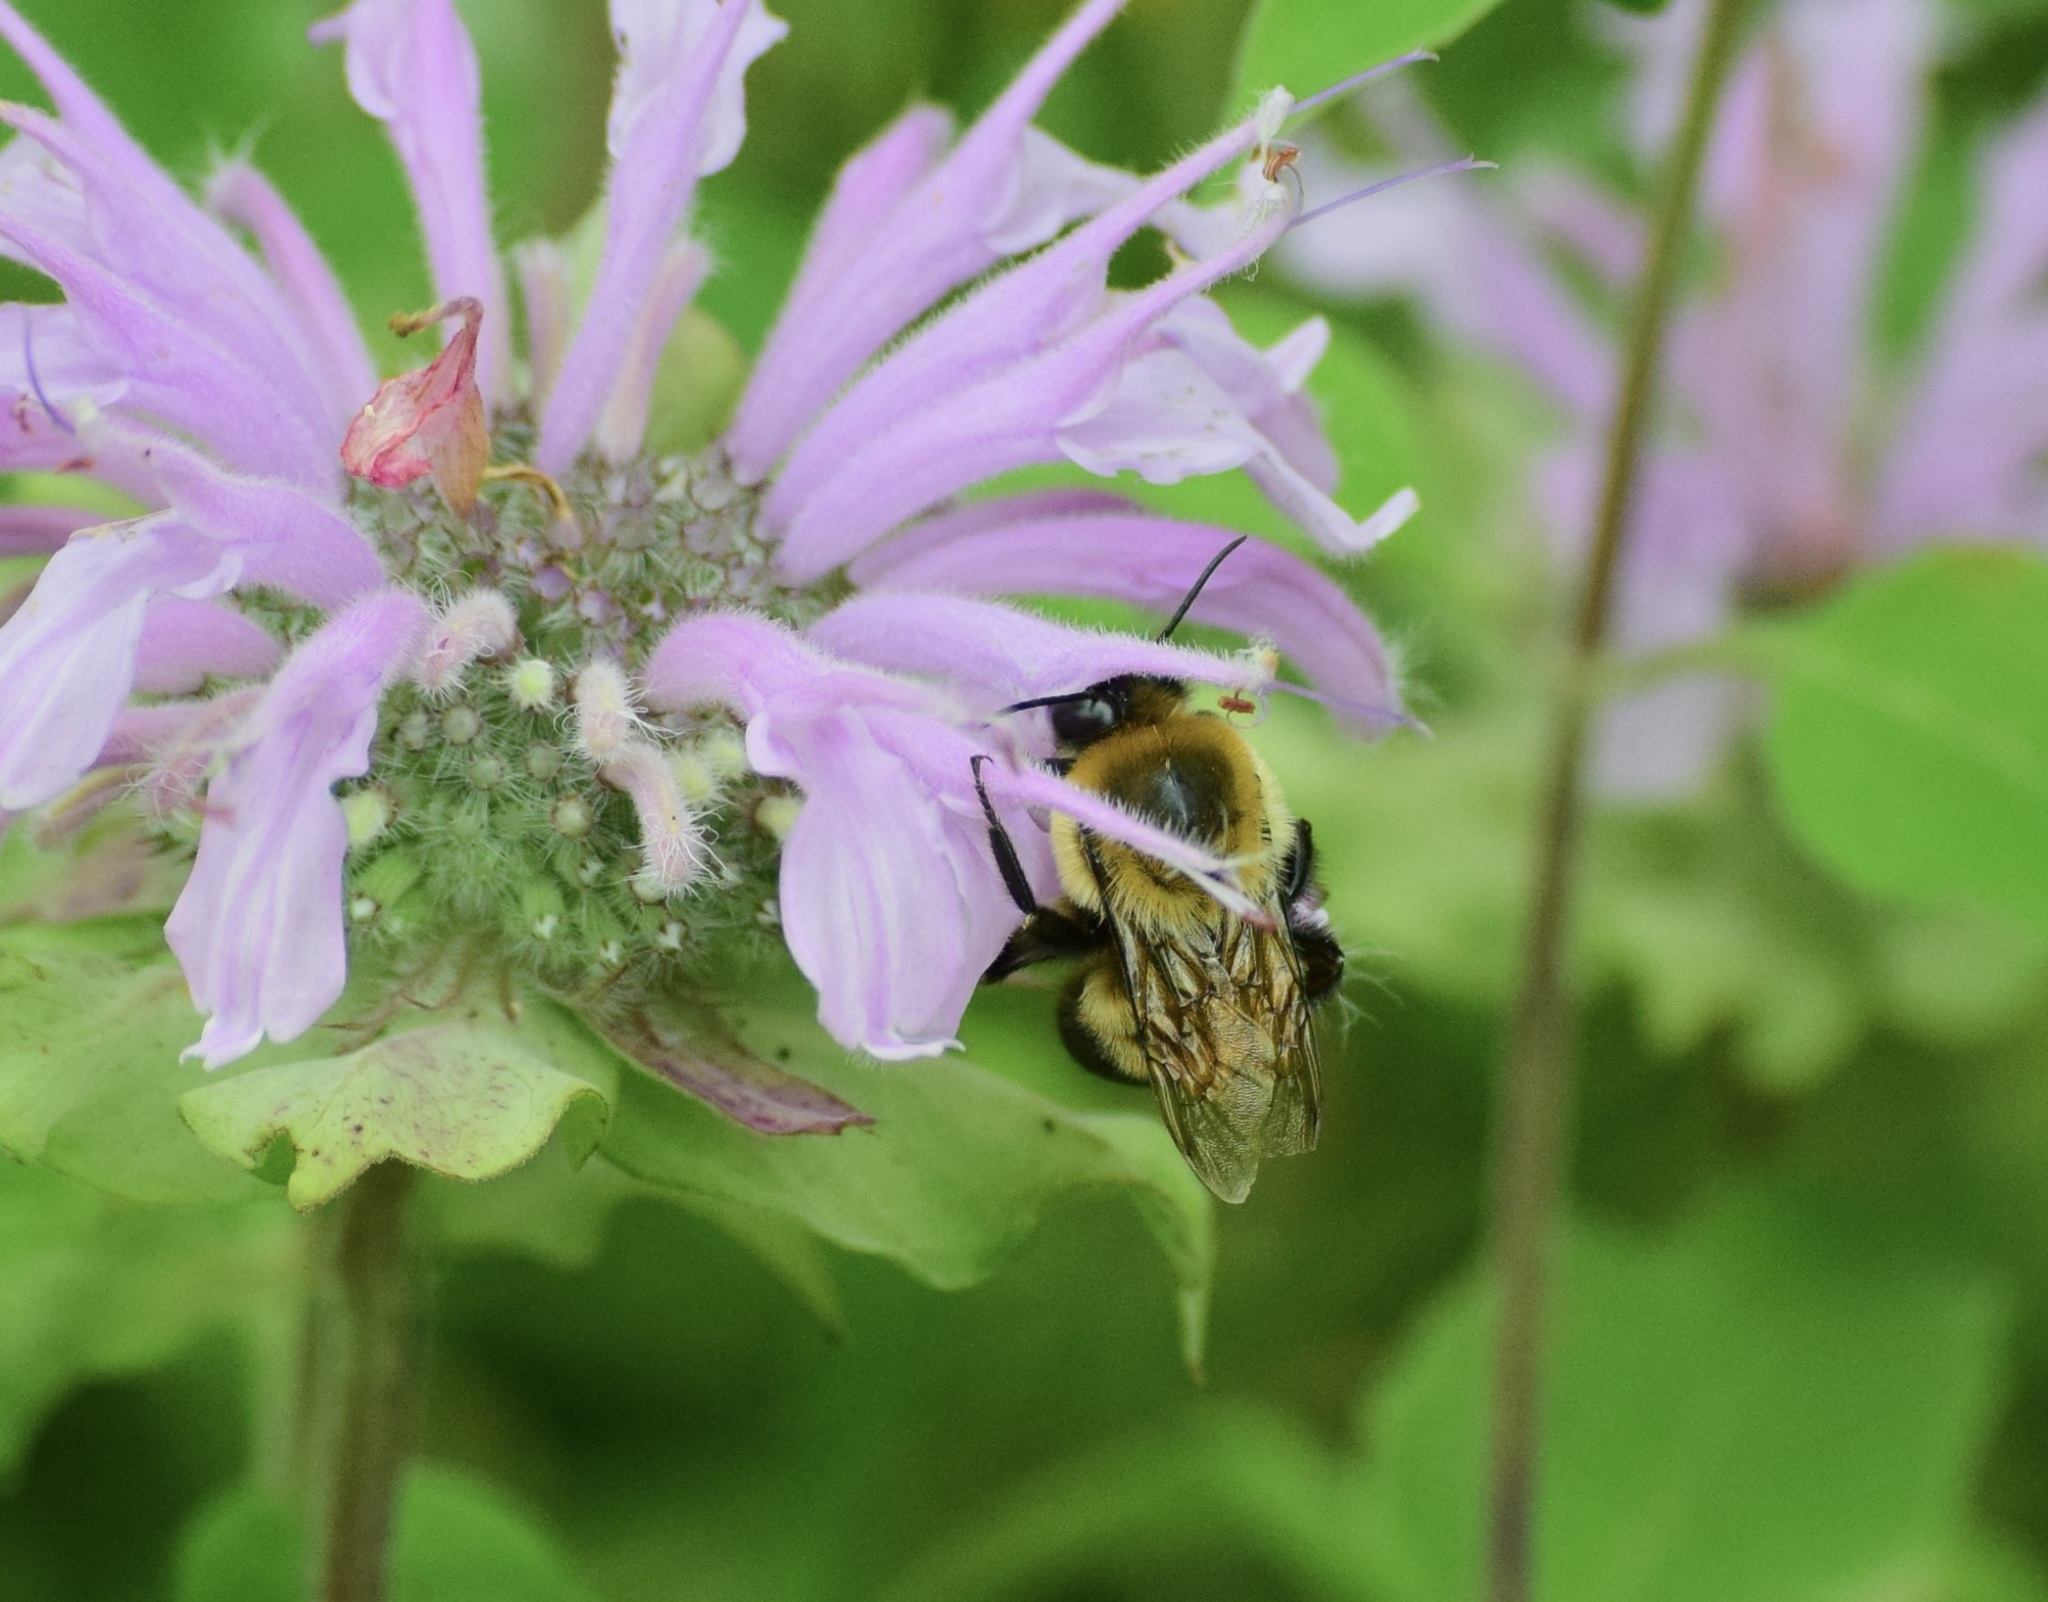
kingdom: Animalia
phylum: Arthropoda
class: Insecta
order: Hymenoptera
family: Apidae
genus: Bombus
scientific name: Bombus griseocollis
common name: Brown-belted bumble bee
